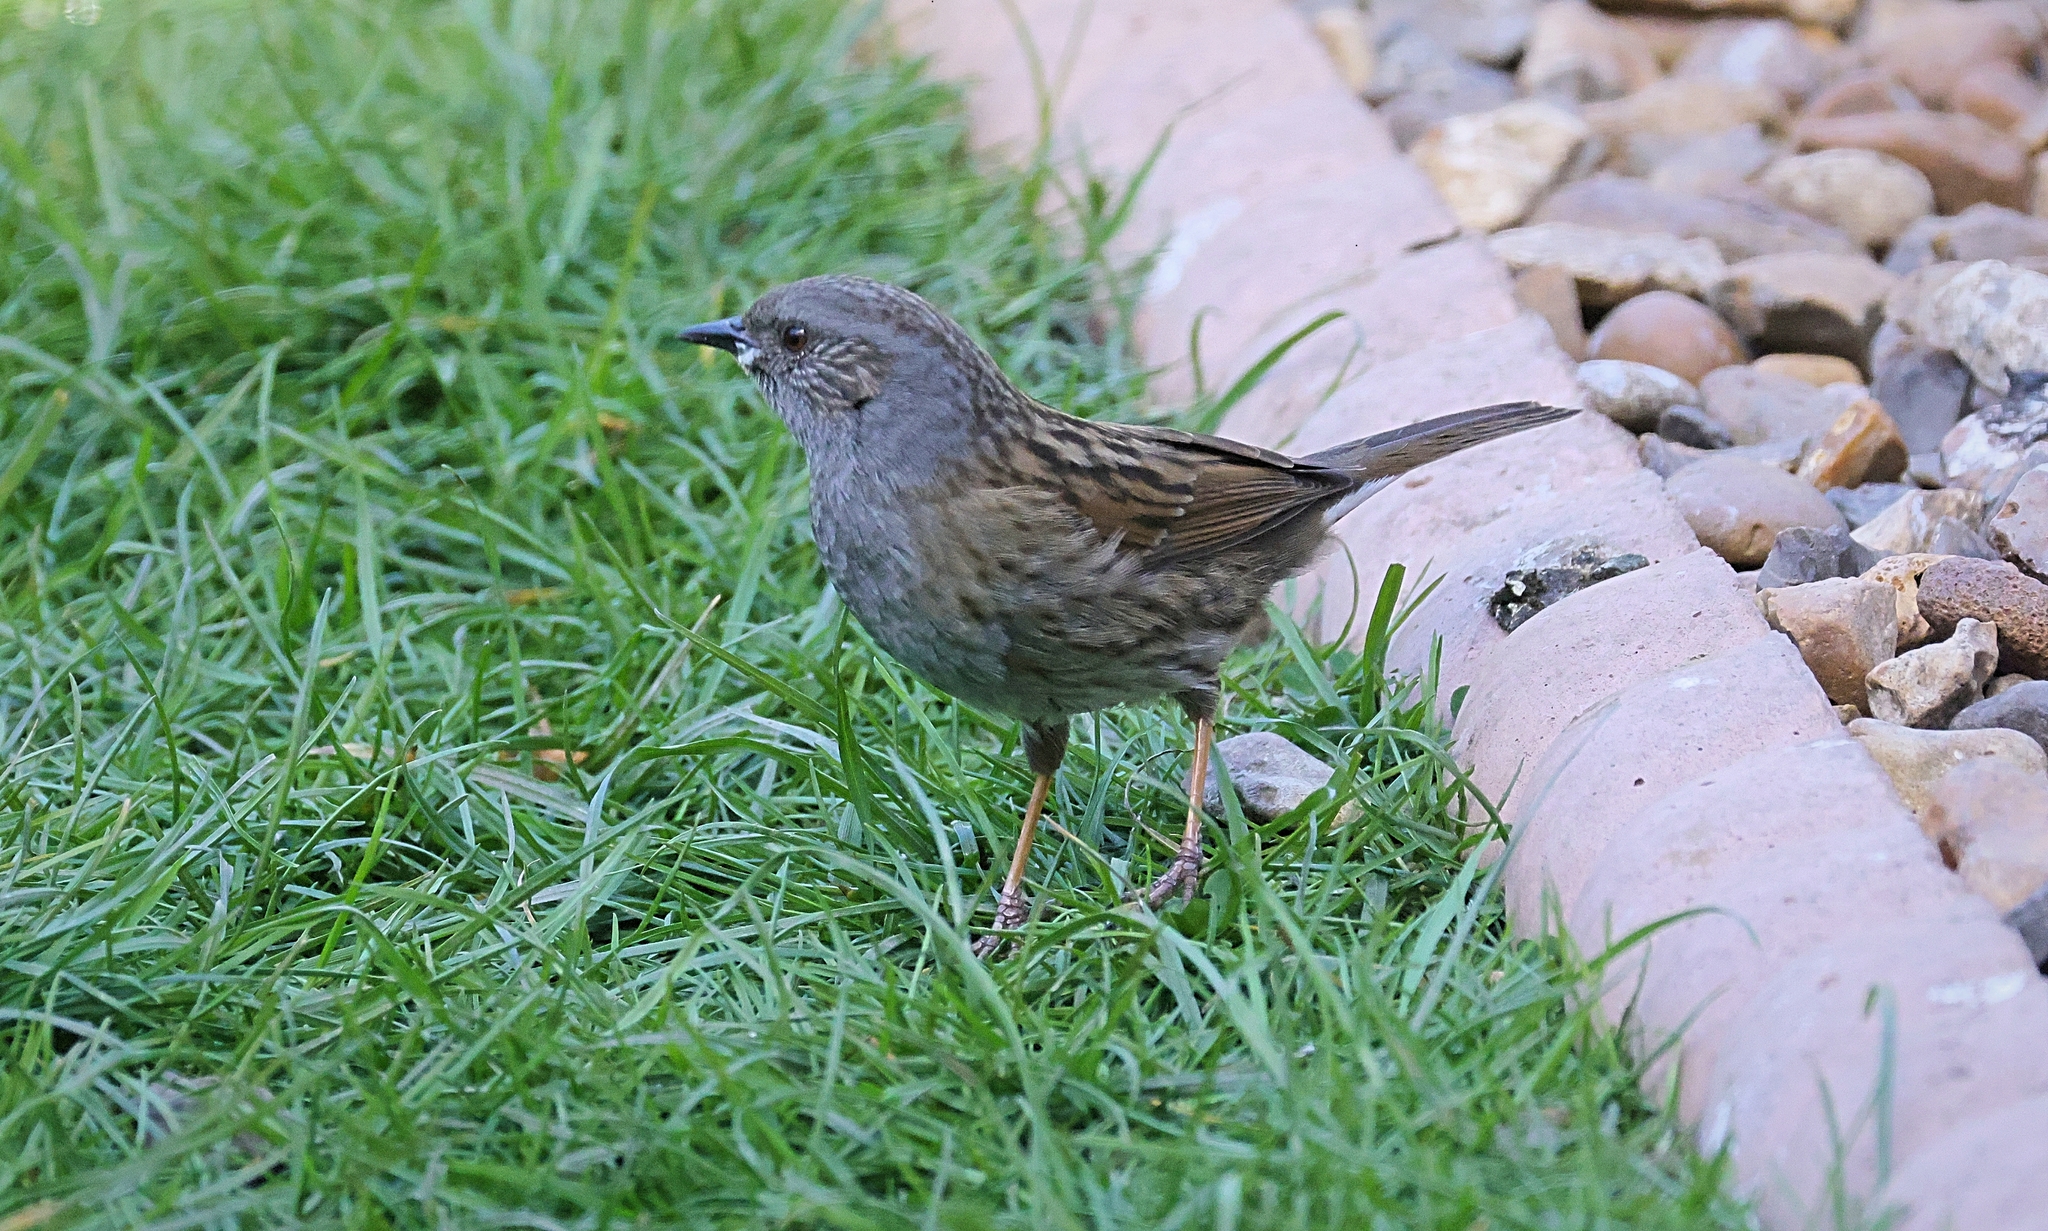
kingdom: Animalia
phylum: Chordata
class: Aves
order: Passeriformes
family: Prunellidae
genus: Prunella
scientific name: Prunella modularis
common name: Dunnock
